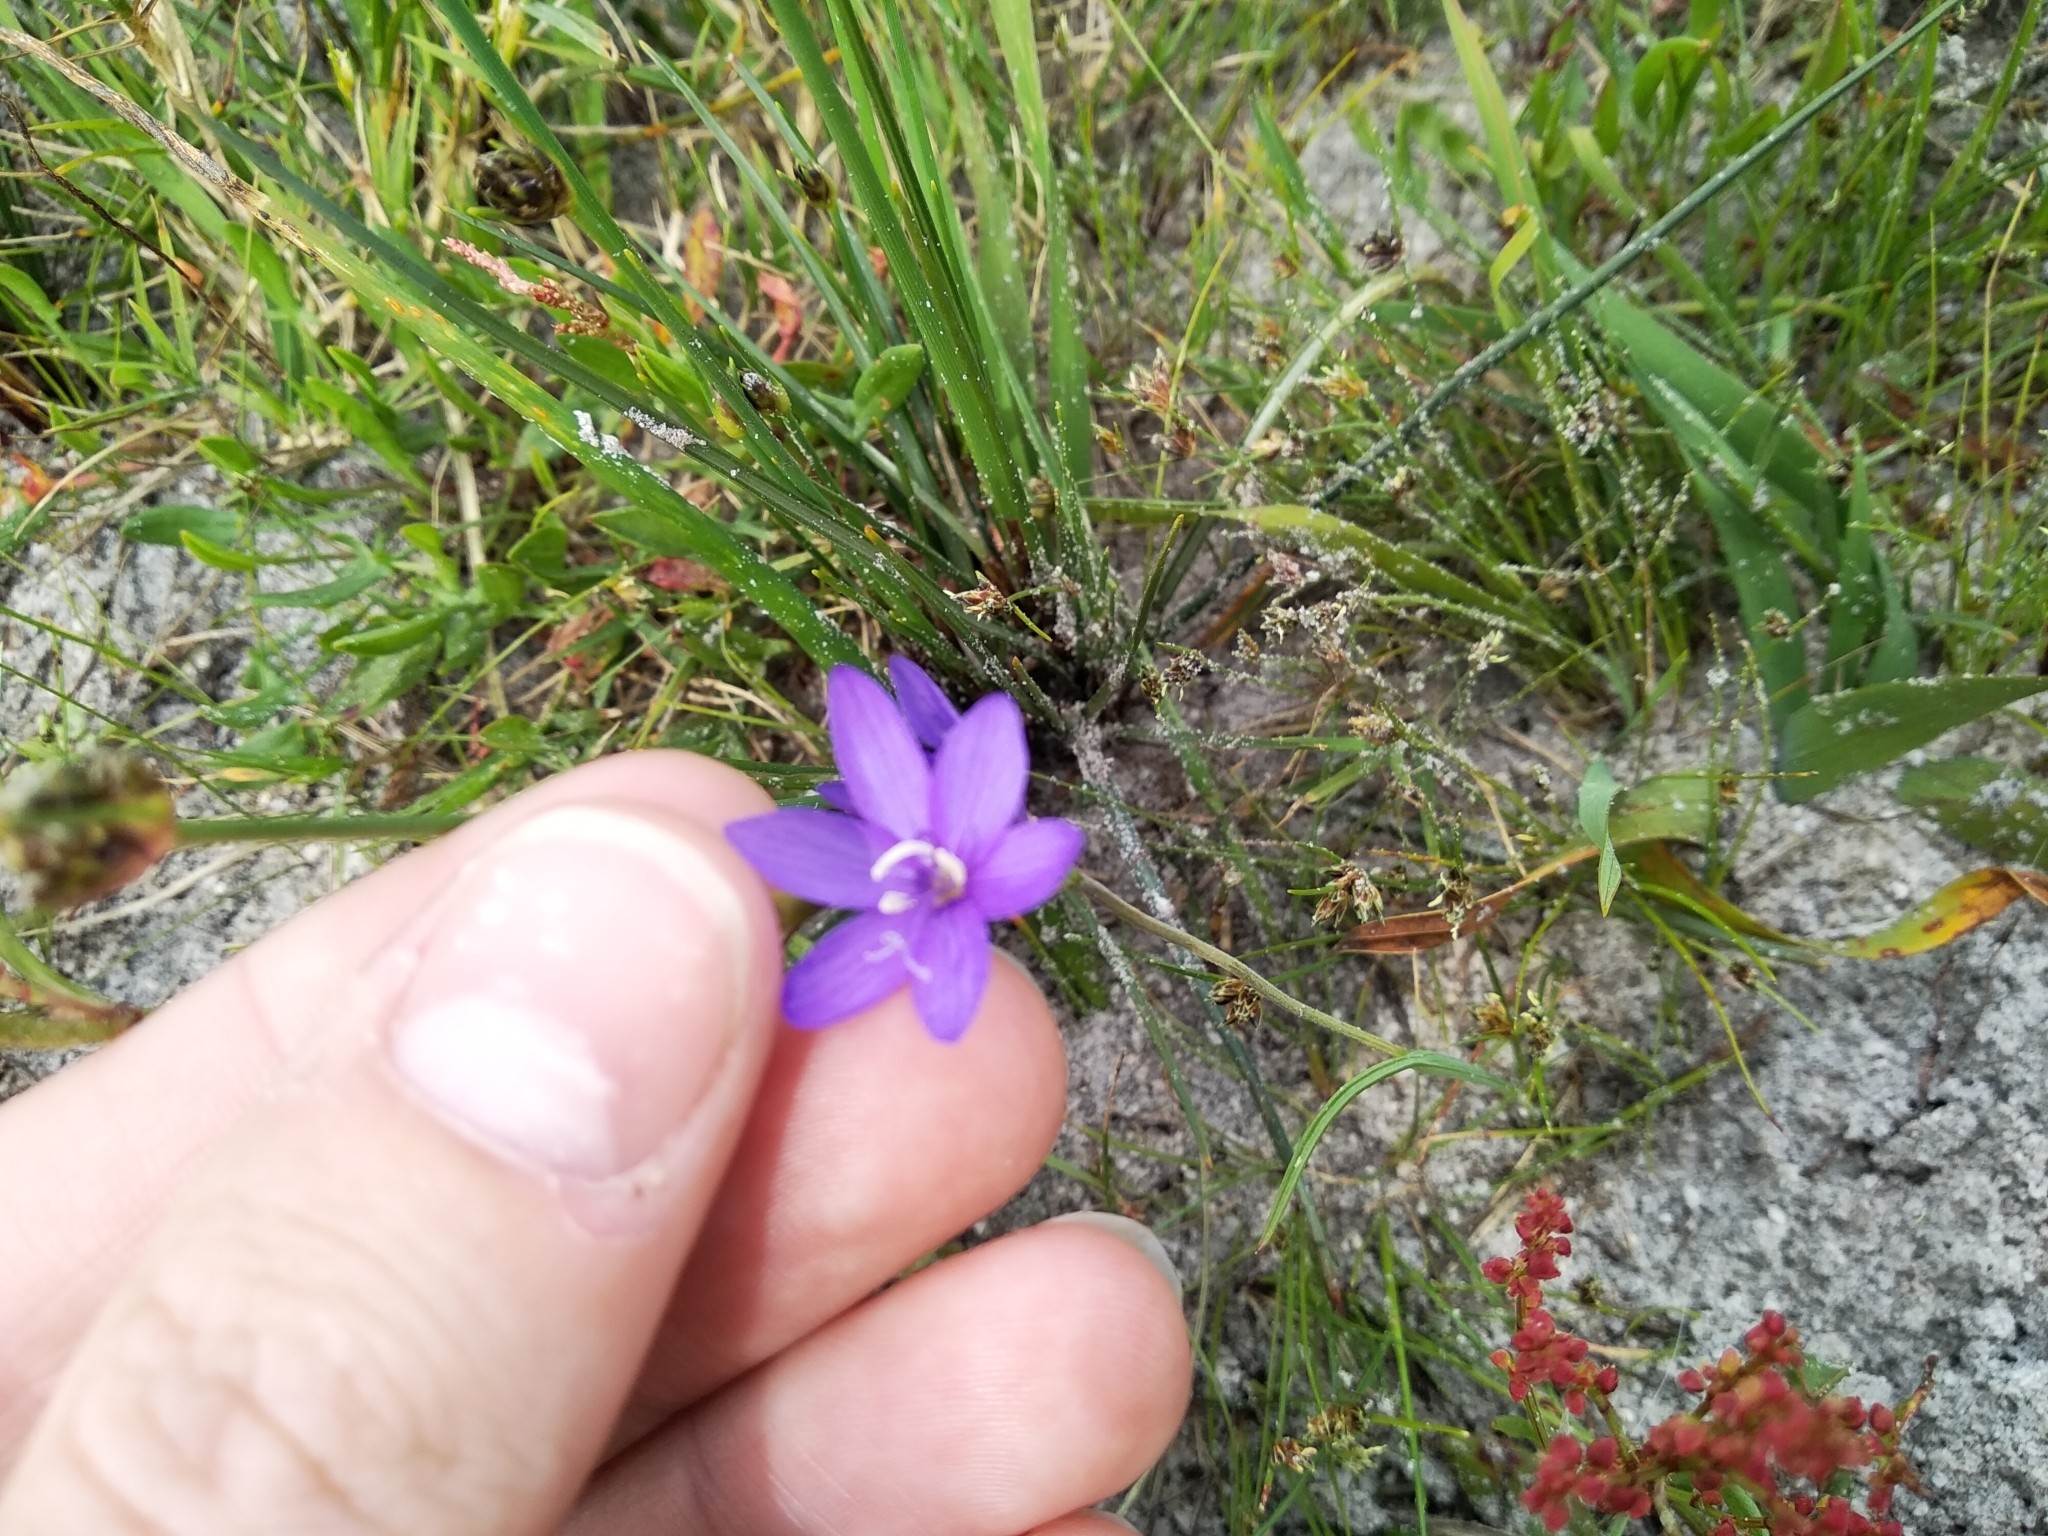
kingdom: Plantae
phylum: Tracheophyta
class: Liliopsida
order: Asparagales
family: Iridaceae
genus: Geissorhiza
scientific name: Geissorhiza aspera
